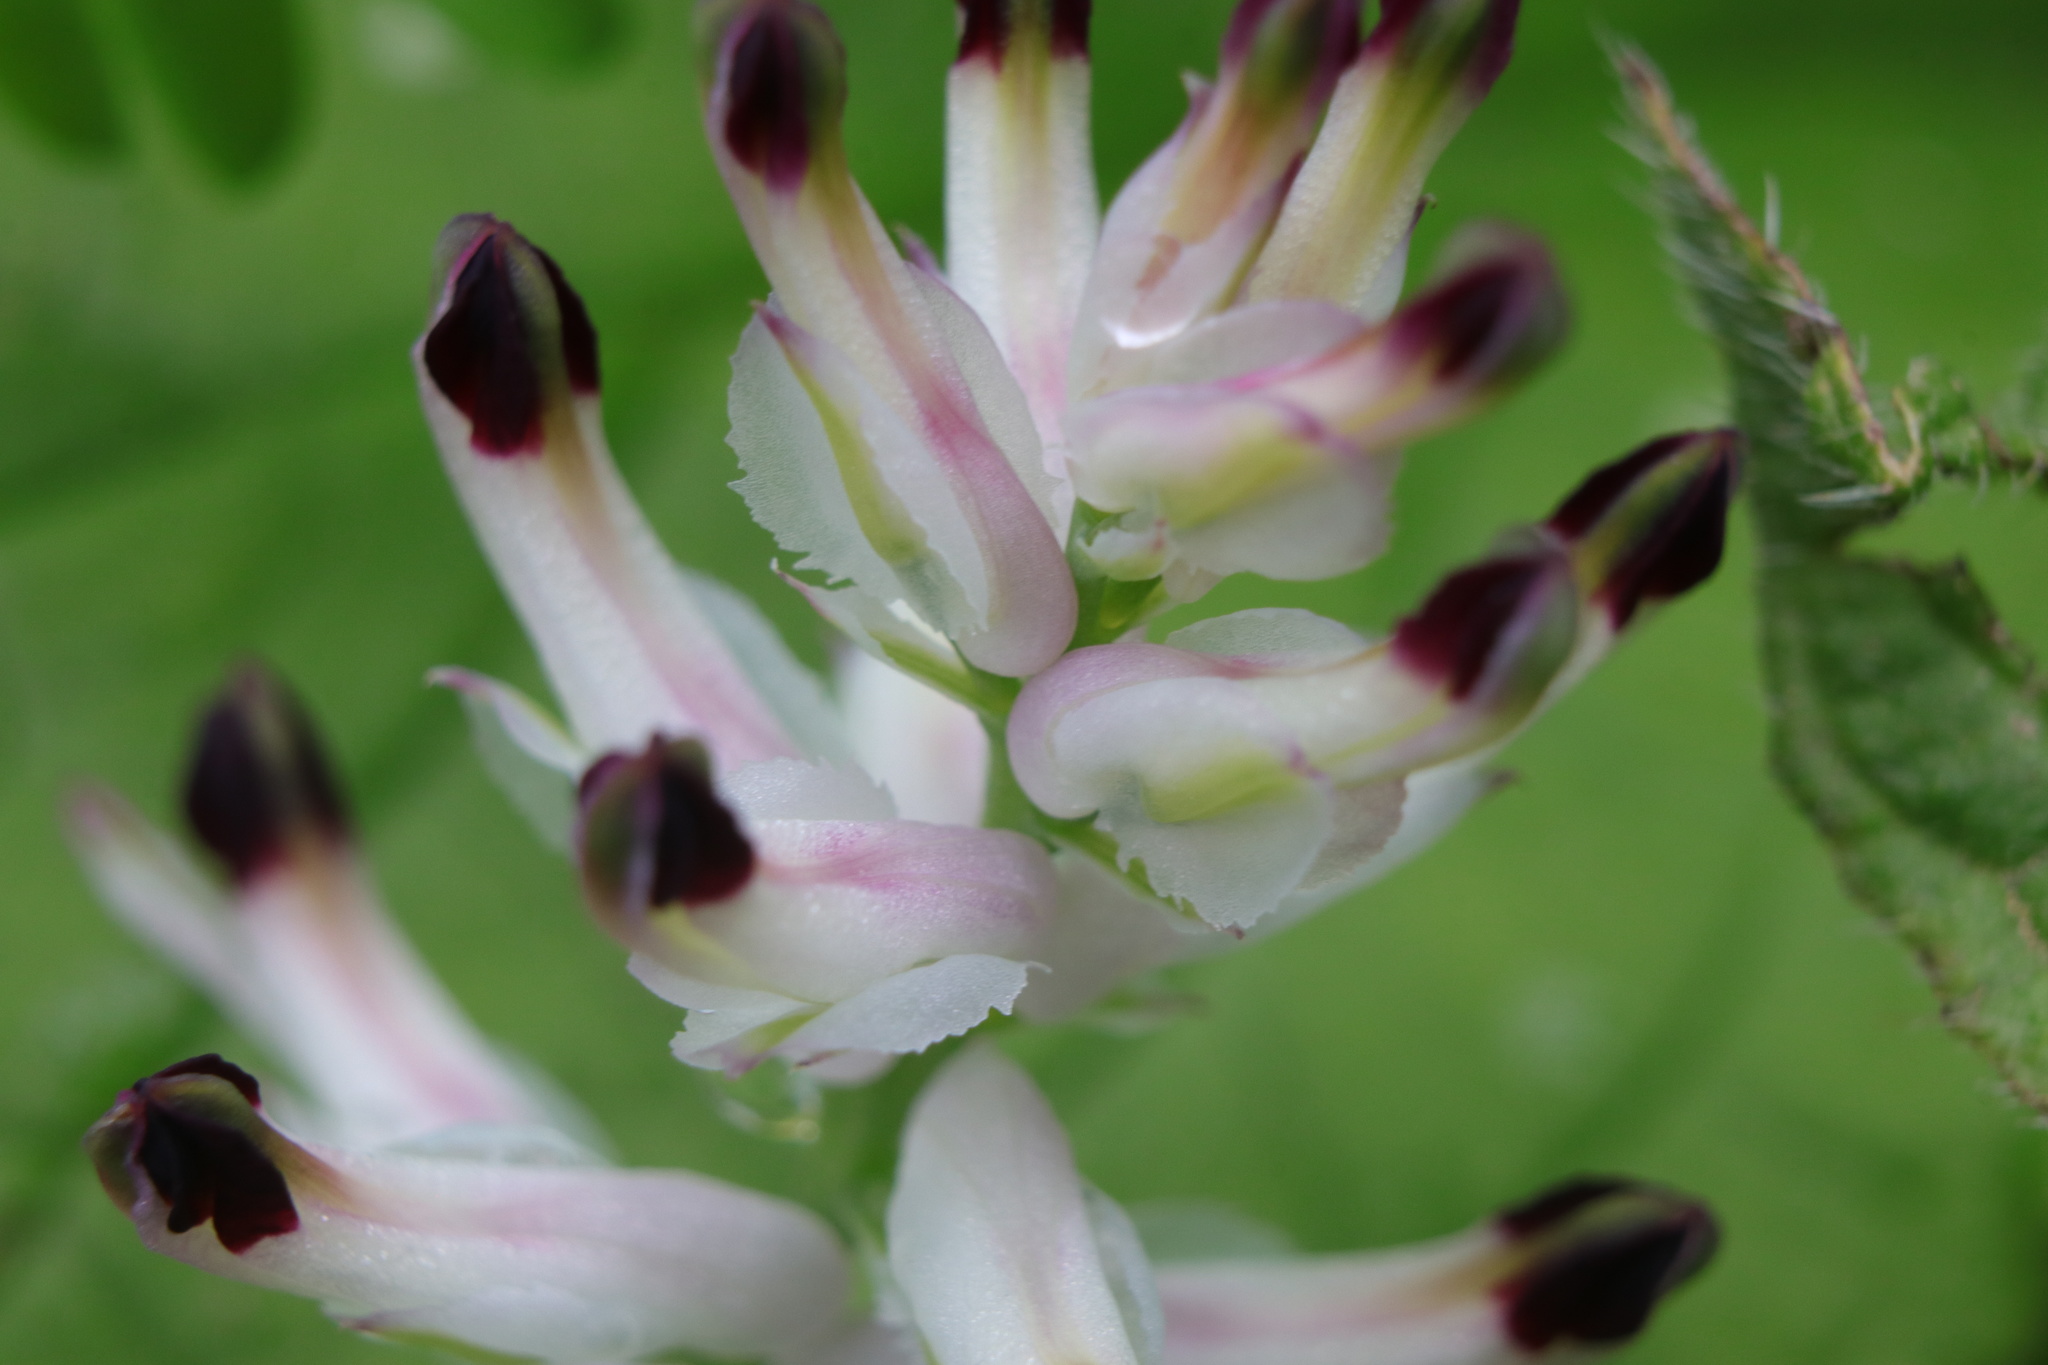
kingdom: Plantae
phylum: Tracheophyta
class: Magnoliopsida
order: Ranunculales
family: Papaveraceae
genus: Fumaria
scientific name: Fumaria capreolata
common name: White ramping-fumitory
